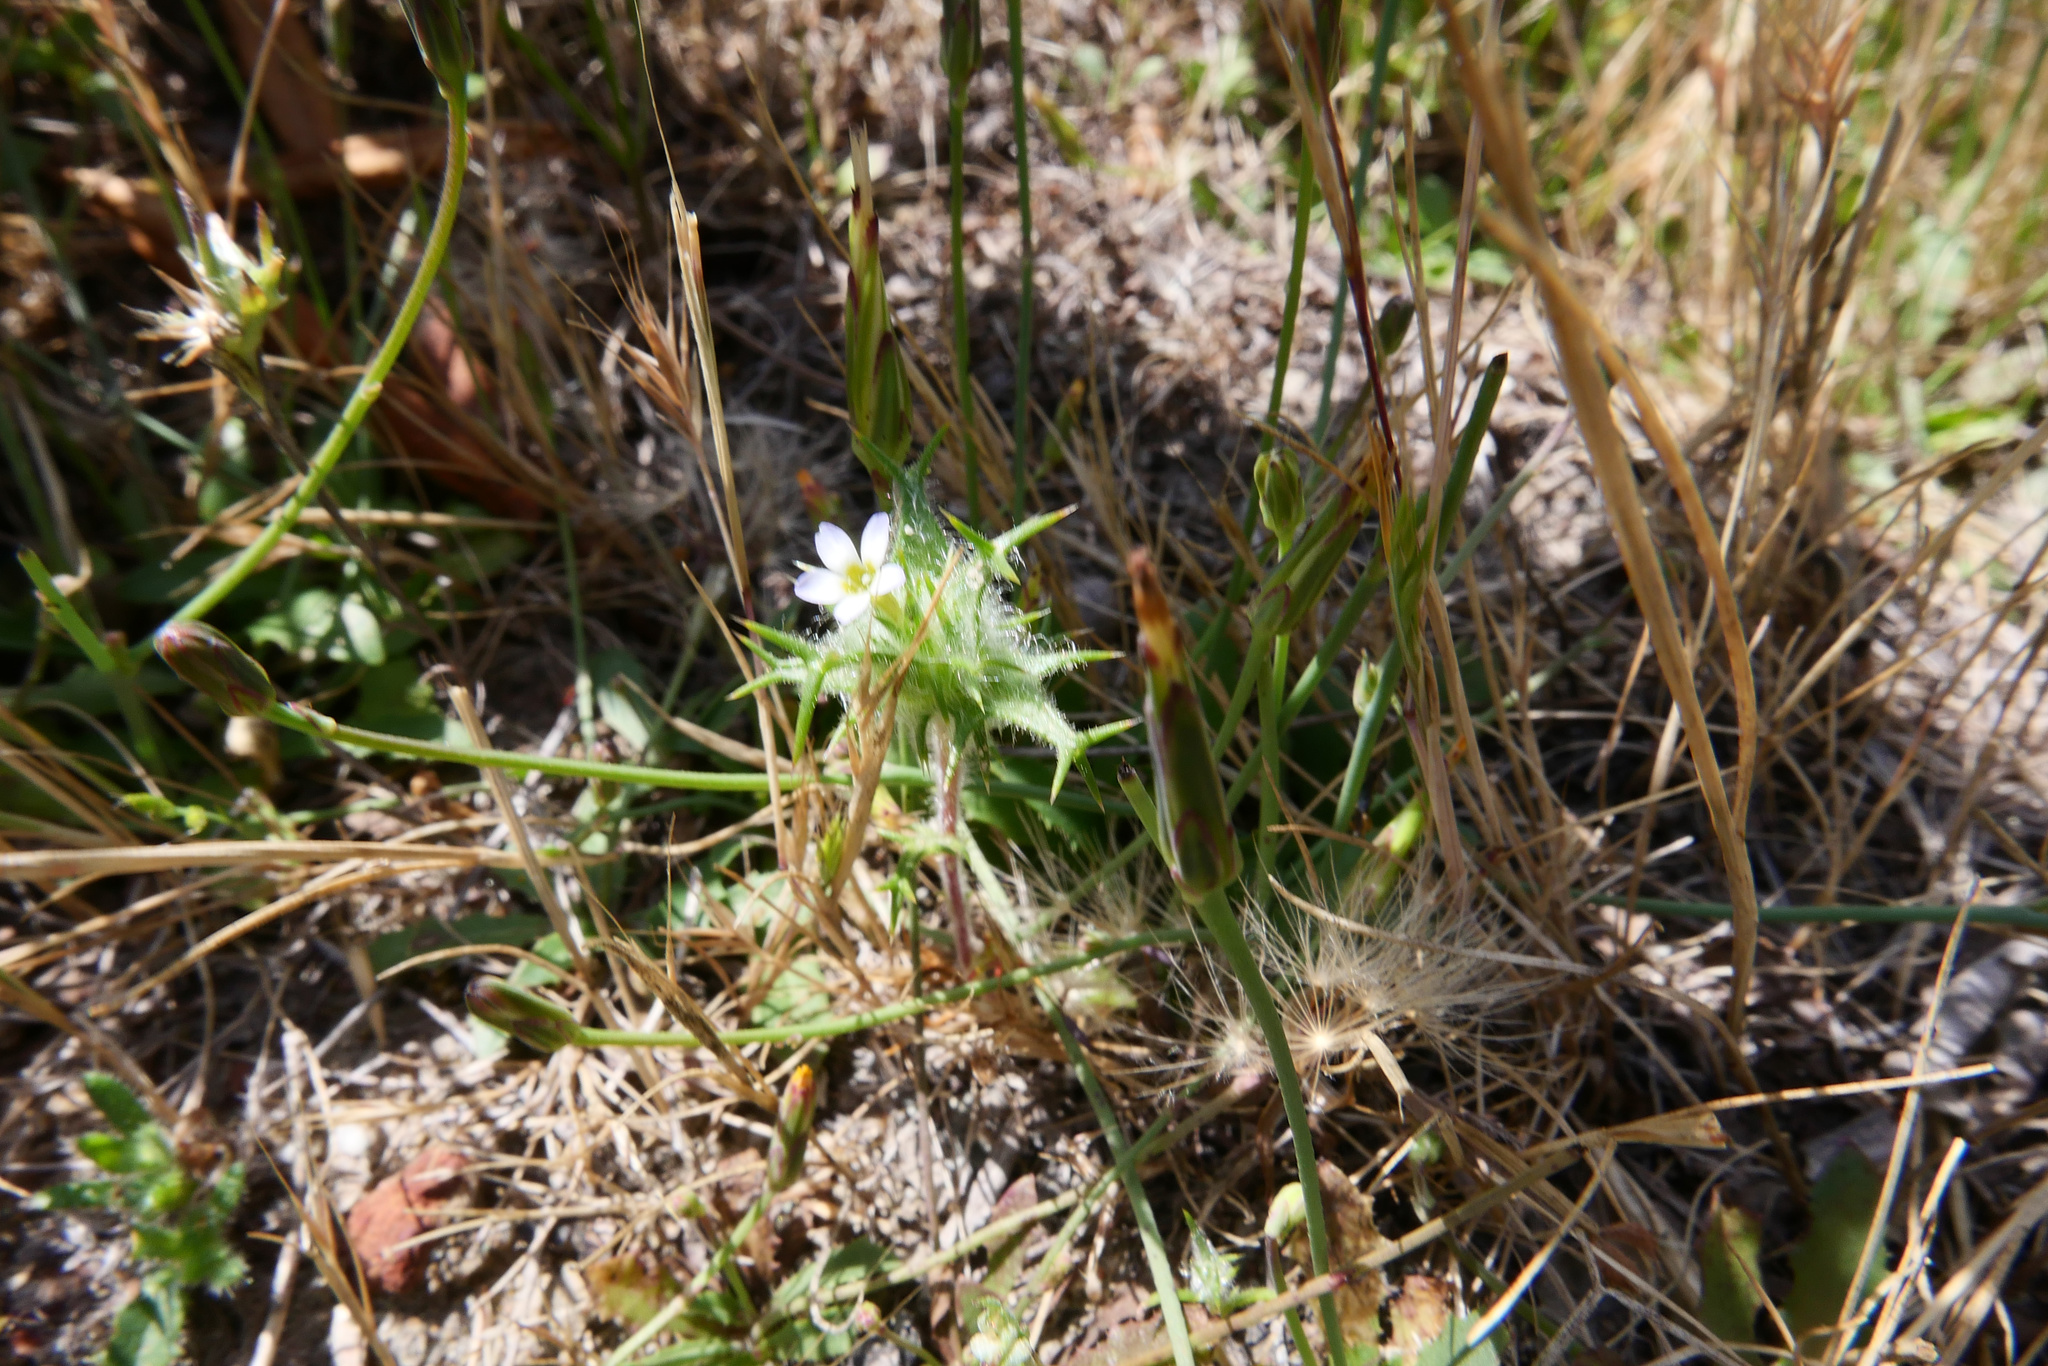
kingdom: Plantae
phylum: Tracheophyta
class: Magnoliopsida
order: Ericales
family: Polemoniaceae
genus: Navarretia
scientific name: Navarretia hamata
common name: Hooked navarretia
